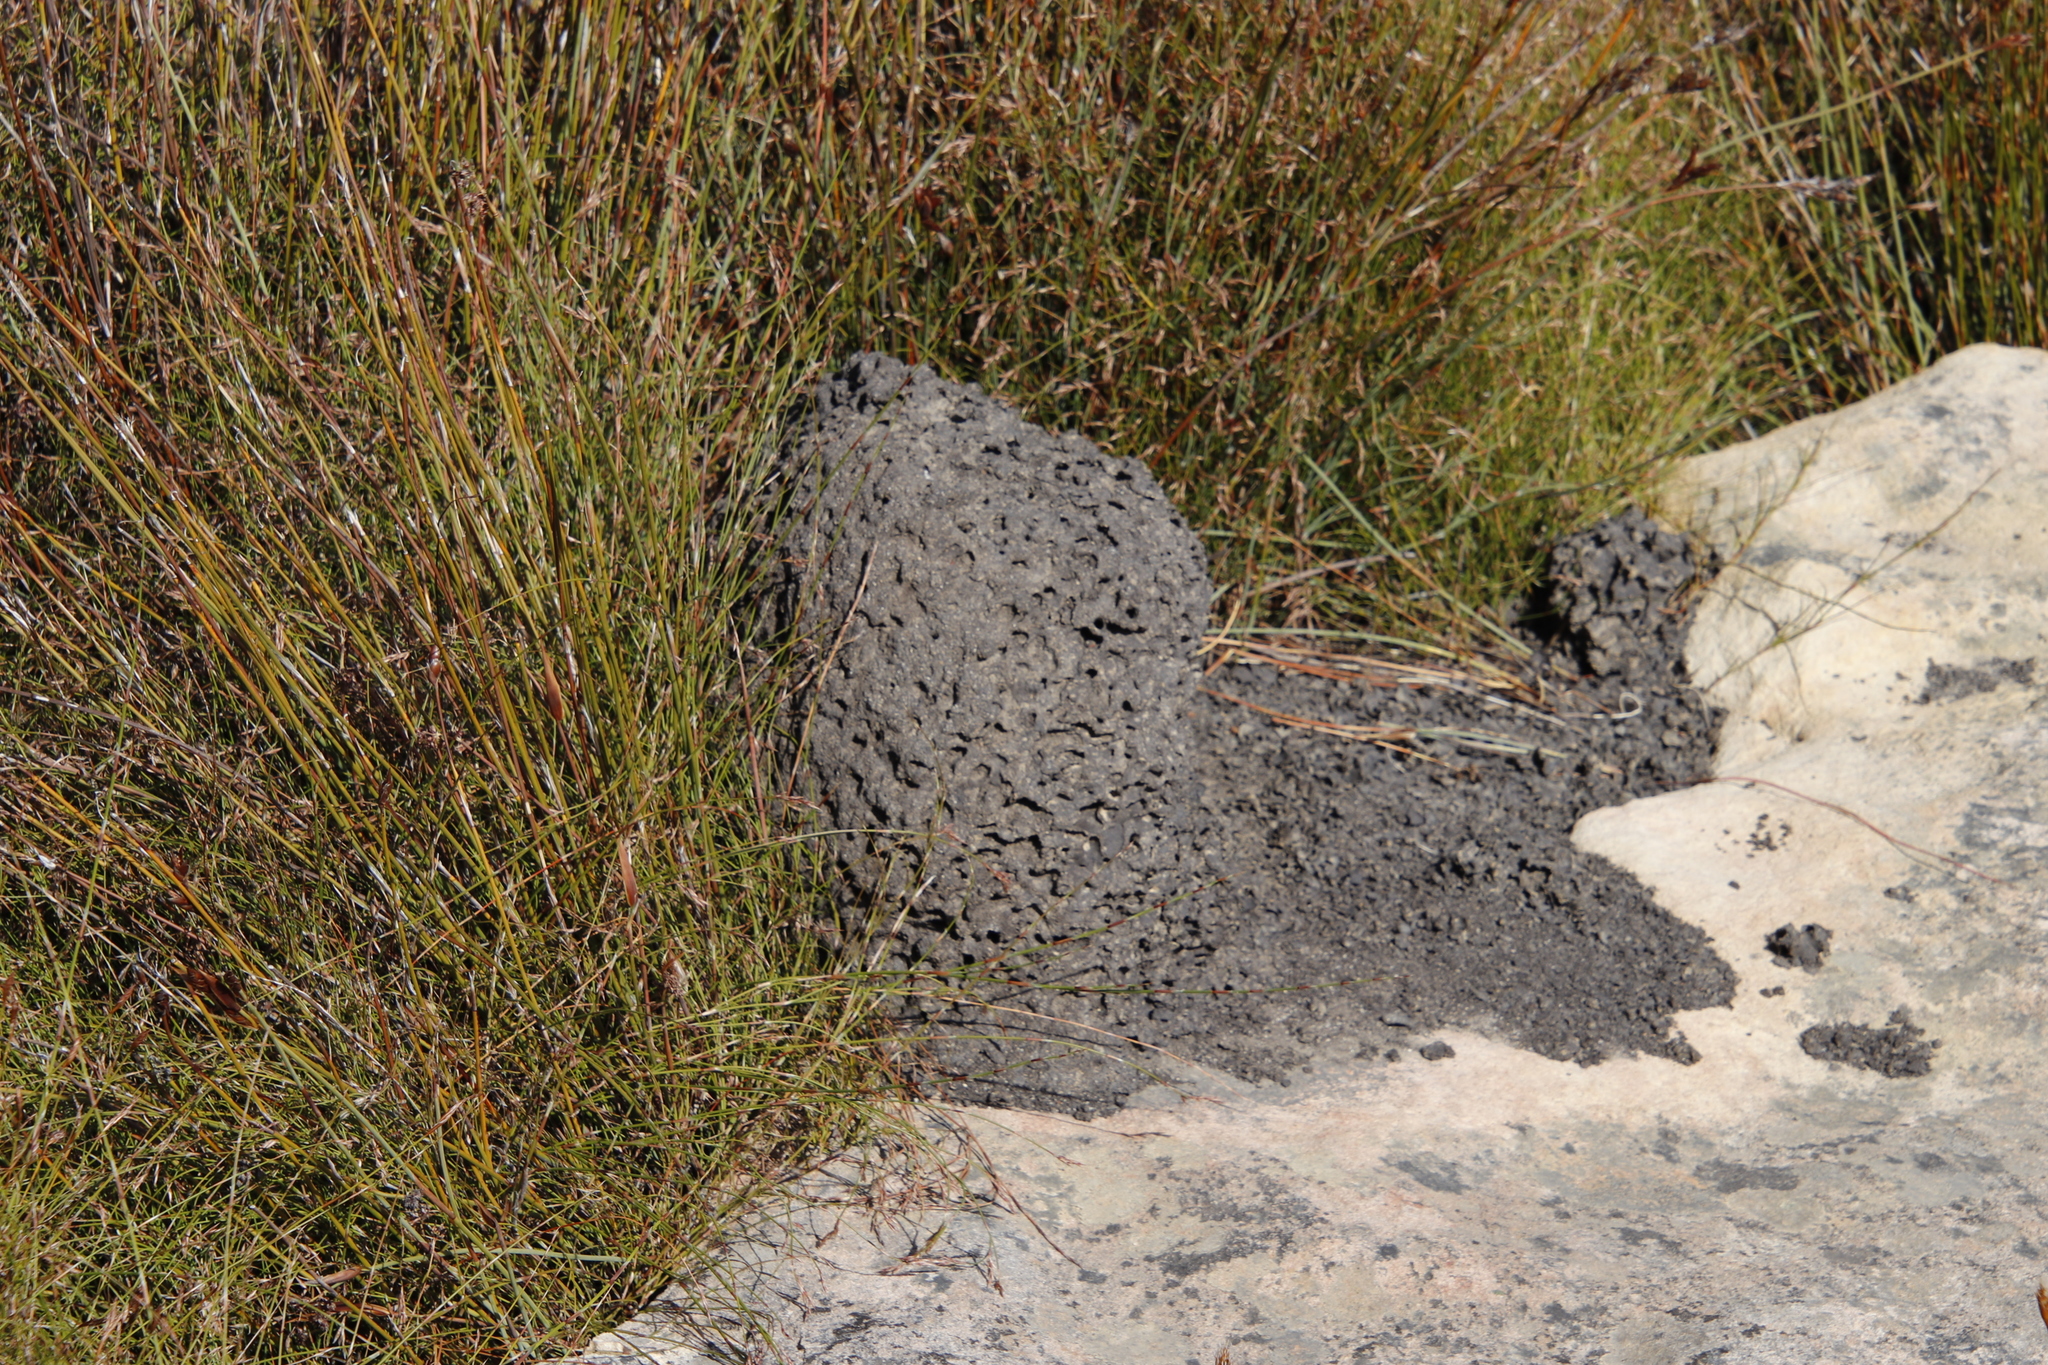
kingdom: Animalia
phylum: Arthropoda
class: Insecta
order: Blattodea
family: Termitidae
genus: Amitermes
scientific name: Amitermes hastatus
